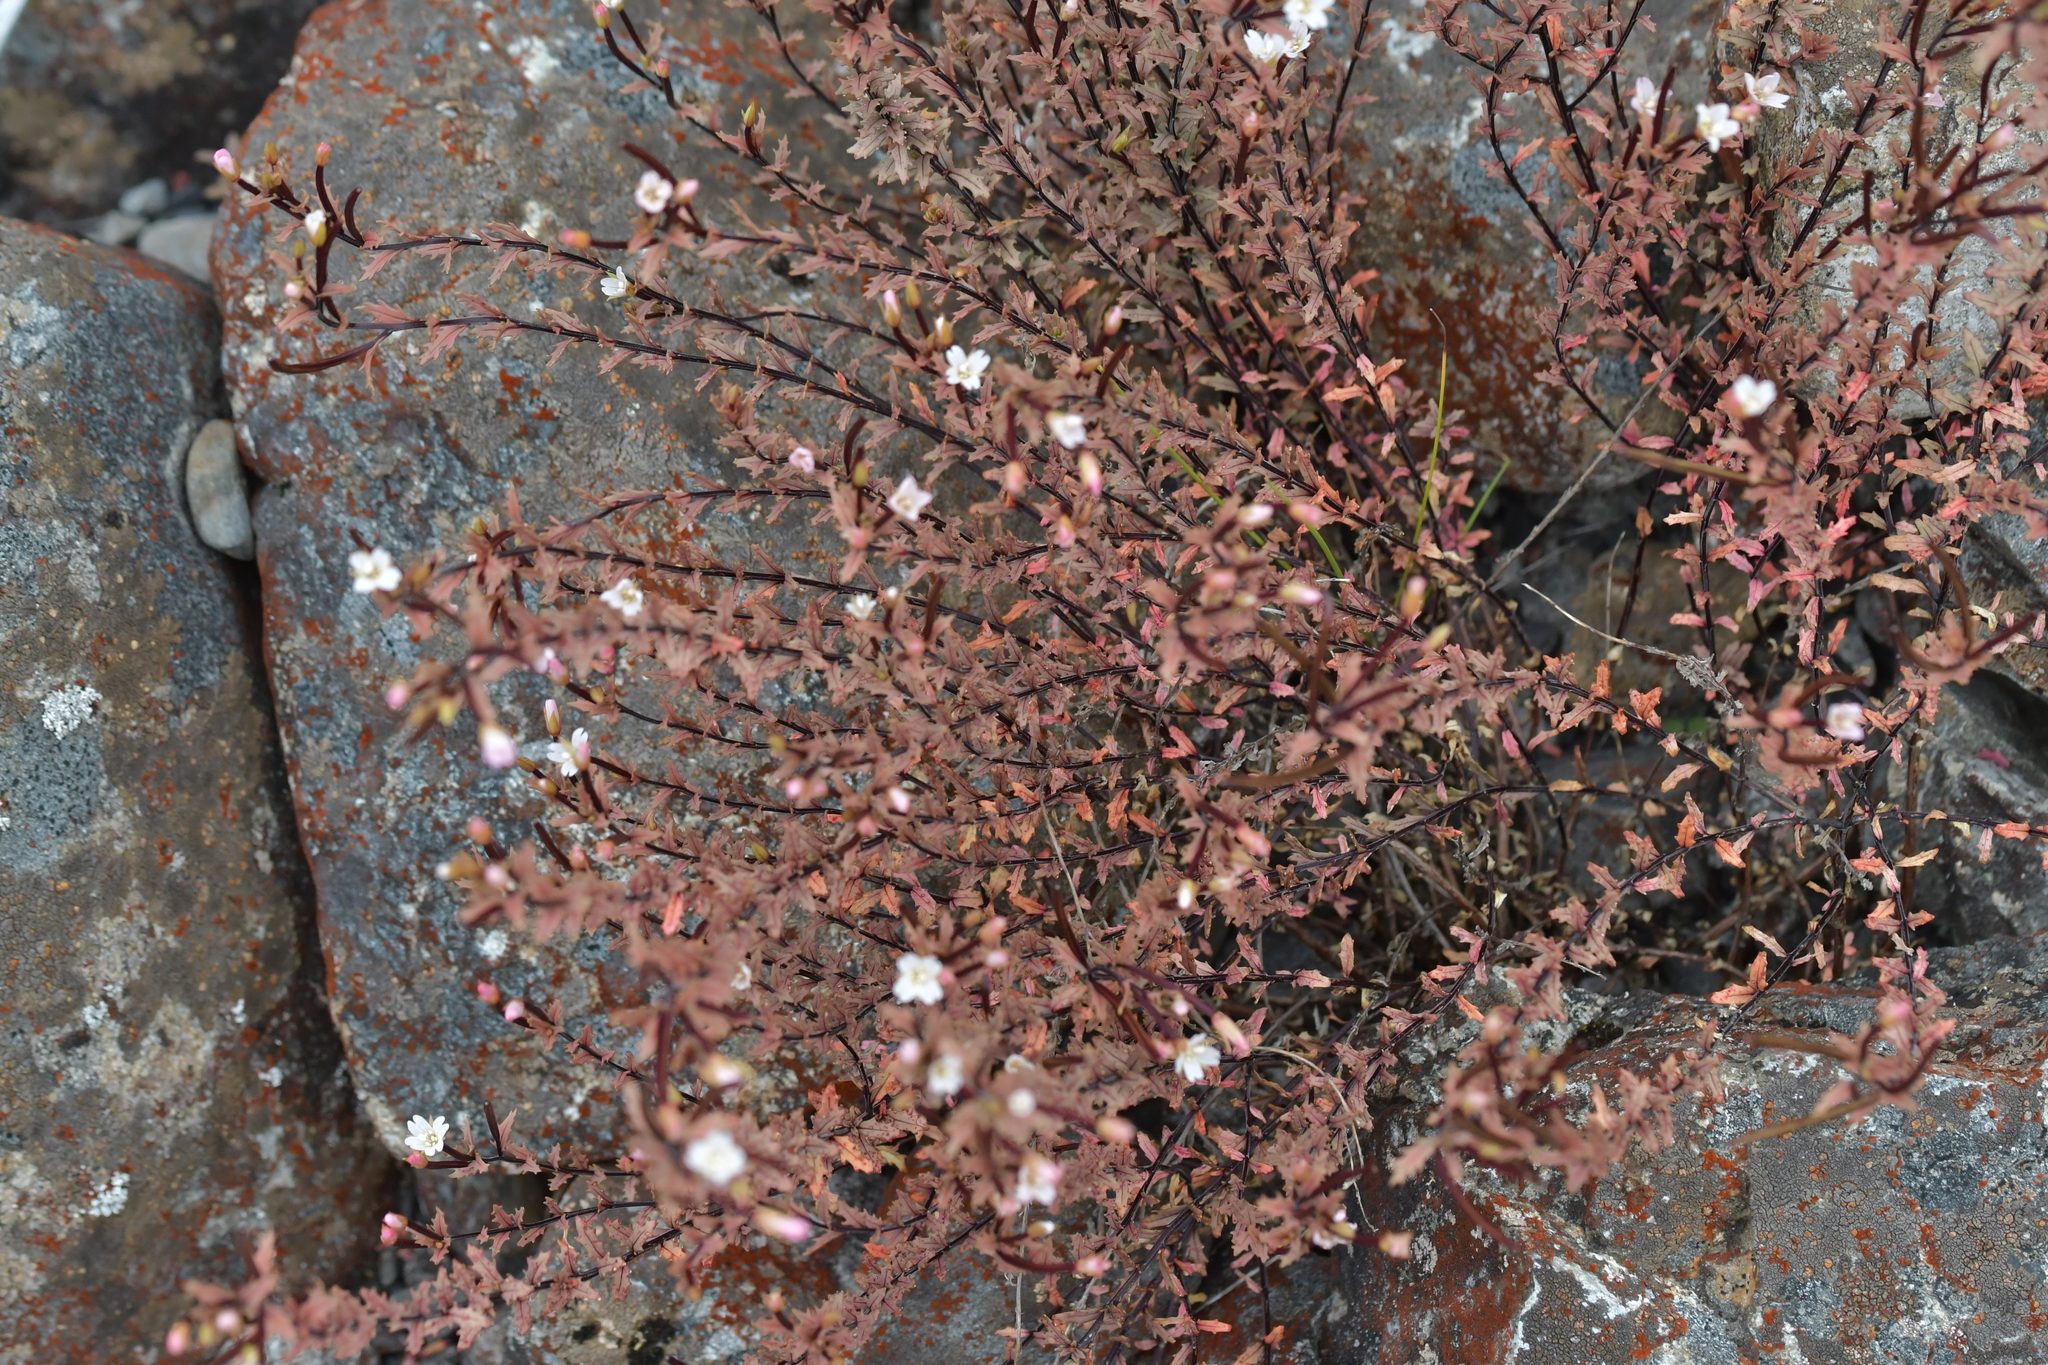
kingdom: Plantae
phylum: Tracheophyta
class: Magnoliopsida
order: Myrtales
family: Onagraceae
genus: Epilobium
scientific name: Epilobium melanocaulon
